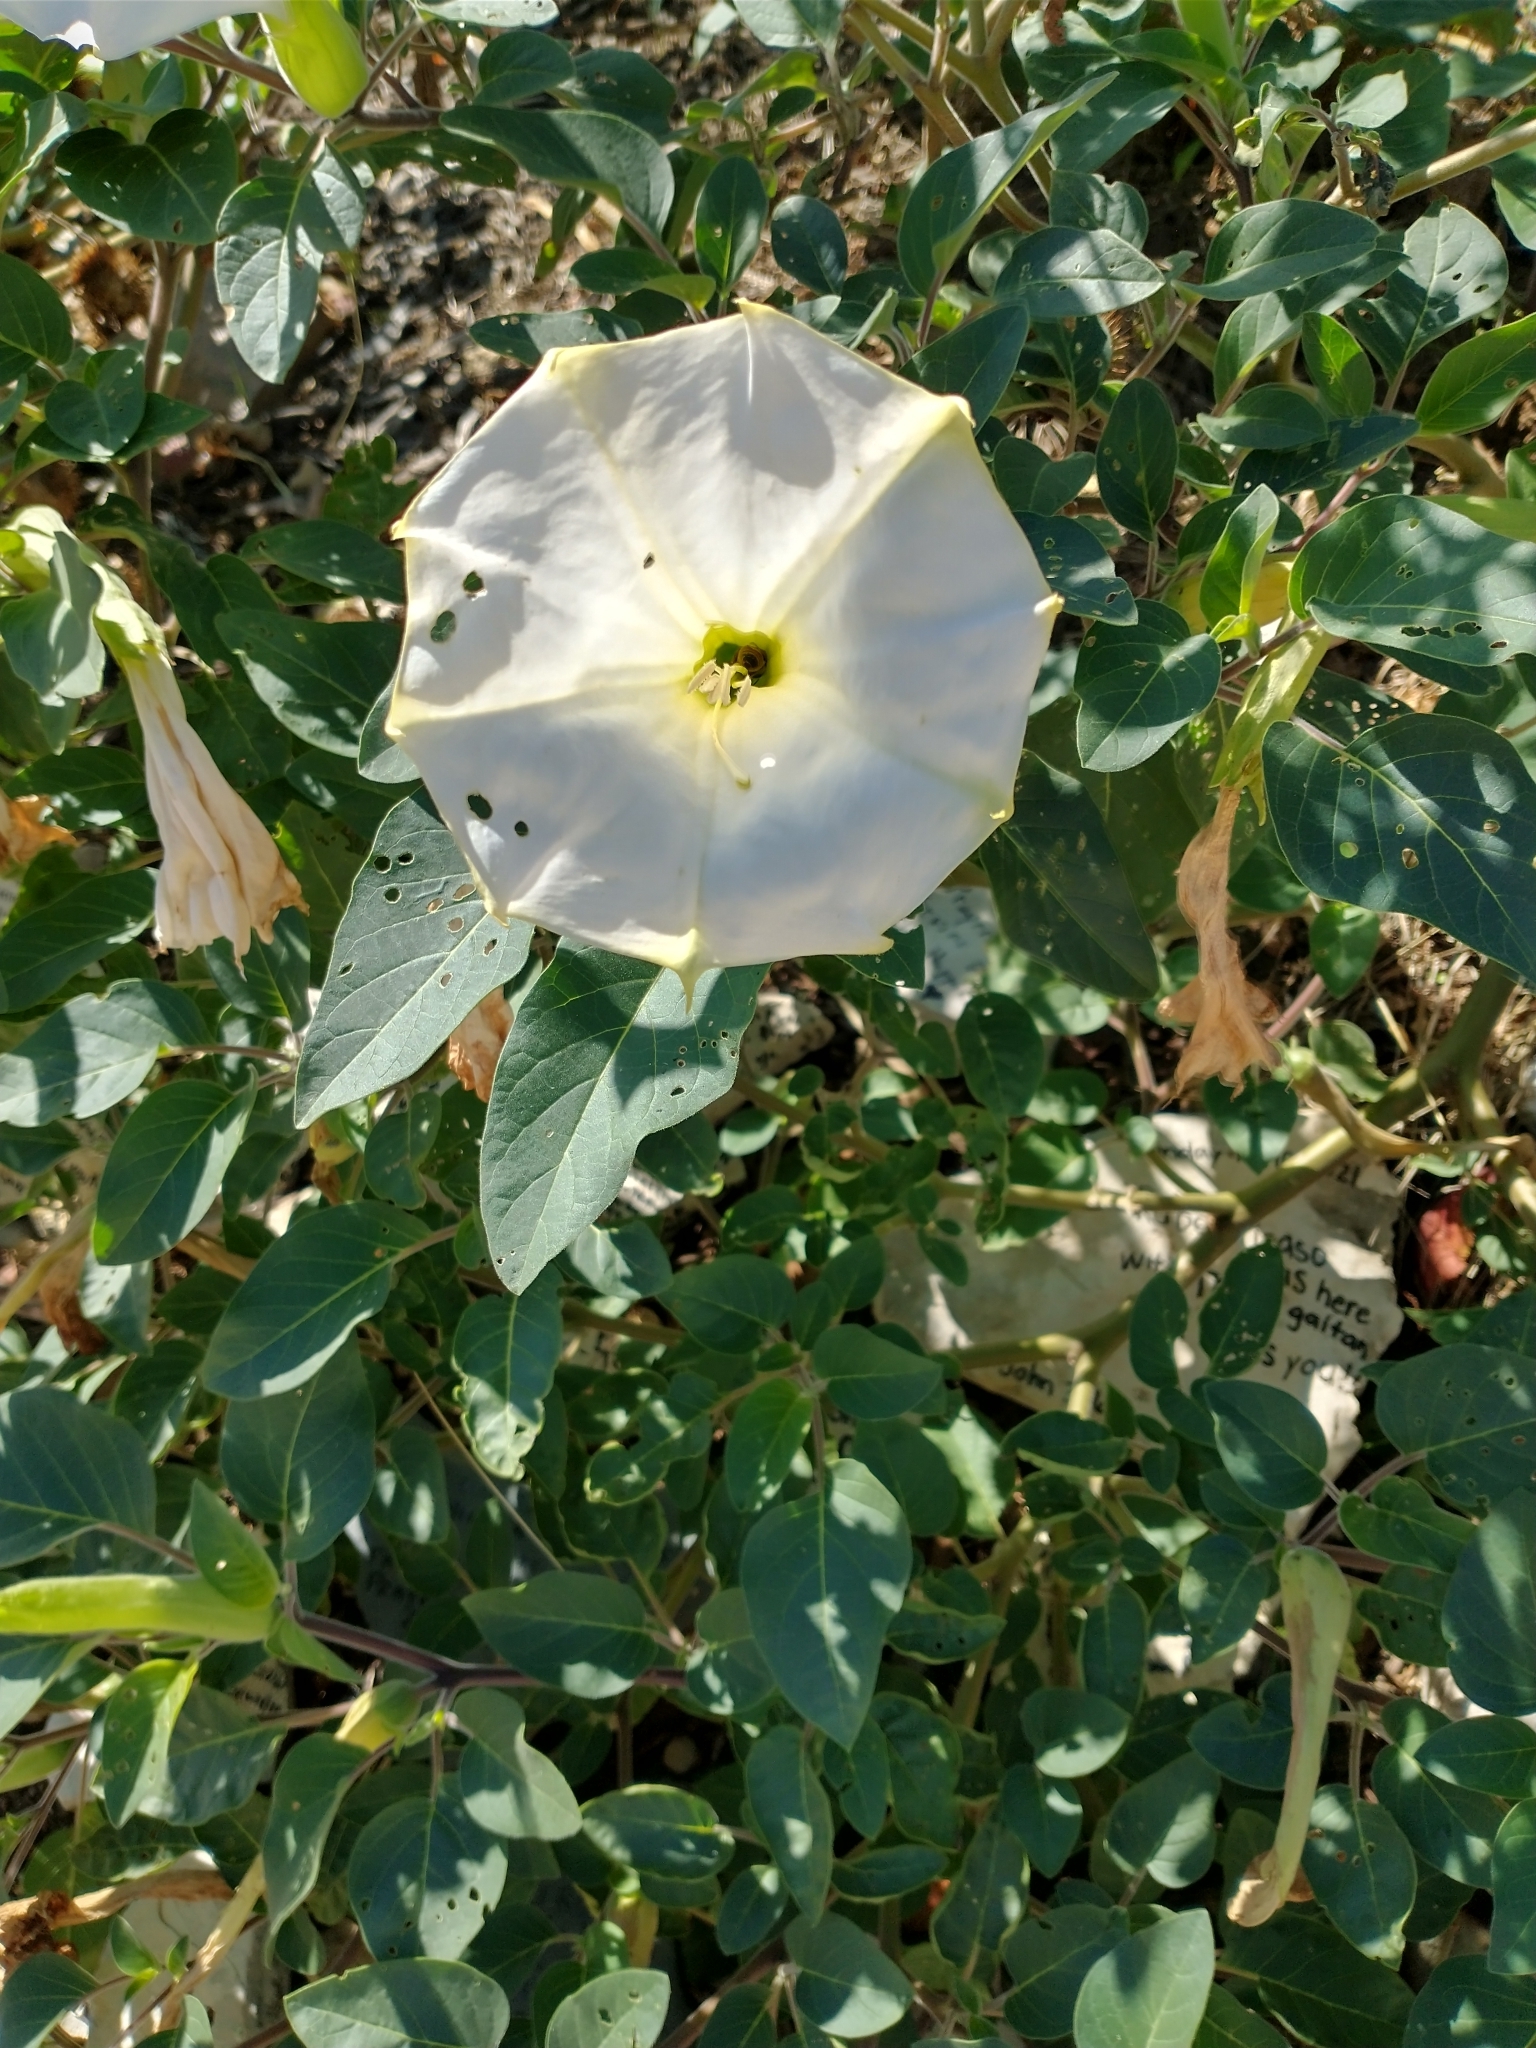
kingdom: Plantae
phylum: Tracheophyta
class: Magnoliopsida
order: Solanales
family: Solanaceae
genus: Datura
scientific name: Datura wrightii
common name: Sacred thorn-apple
